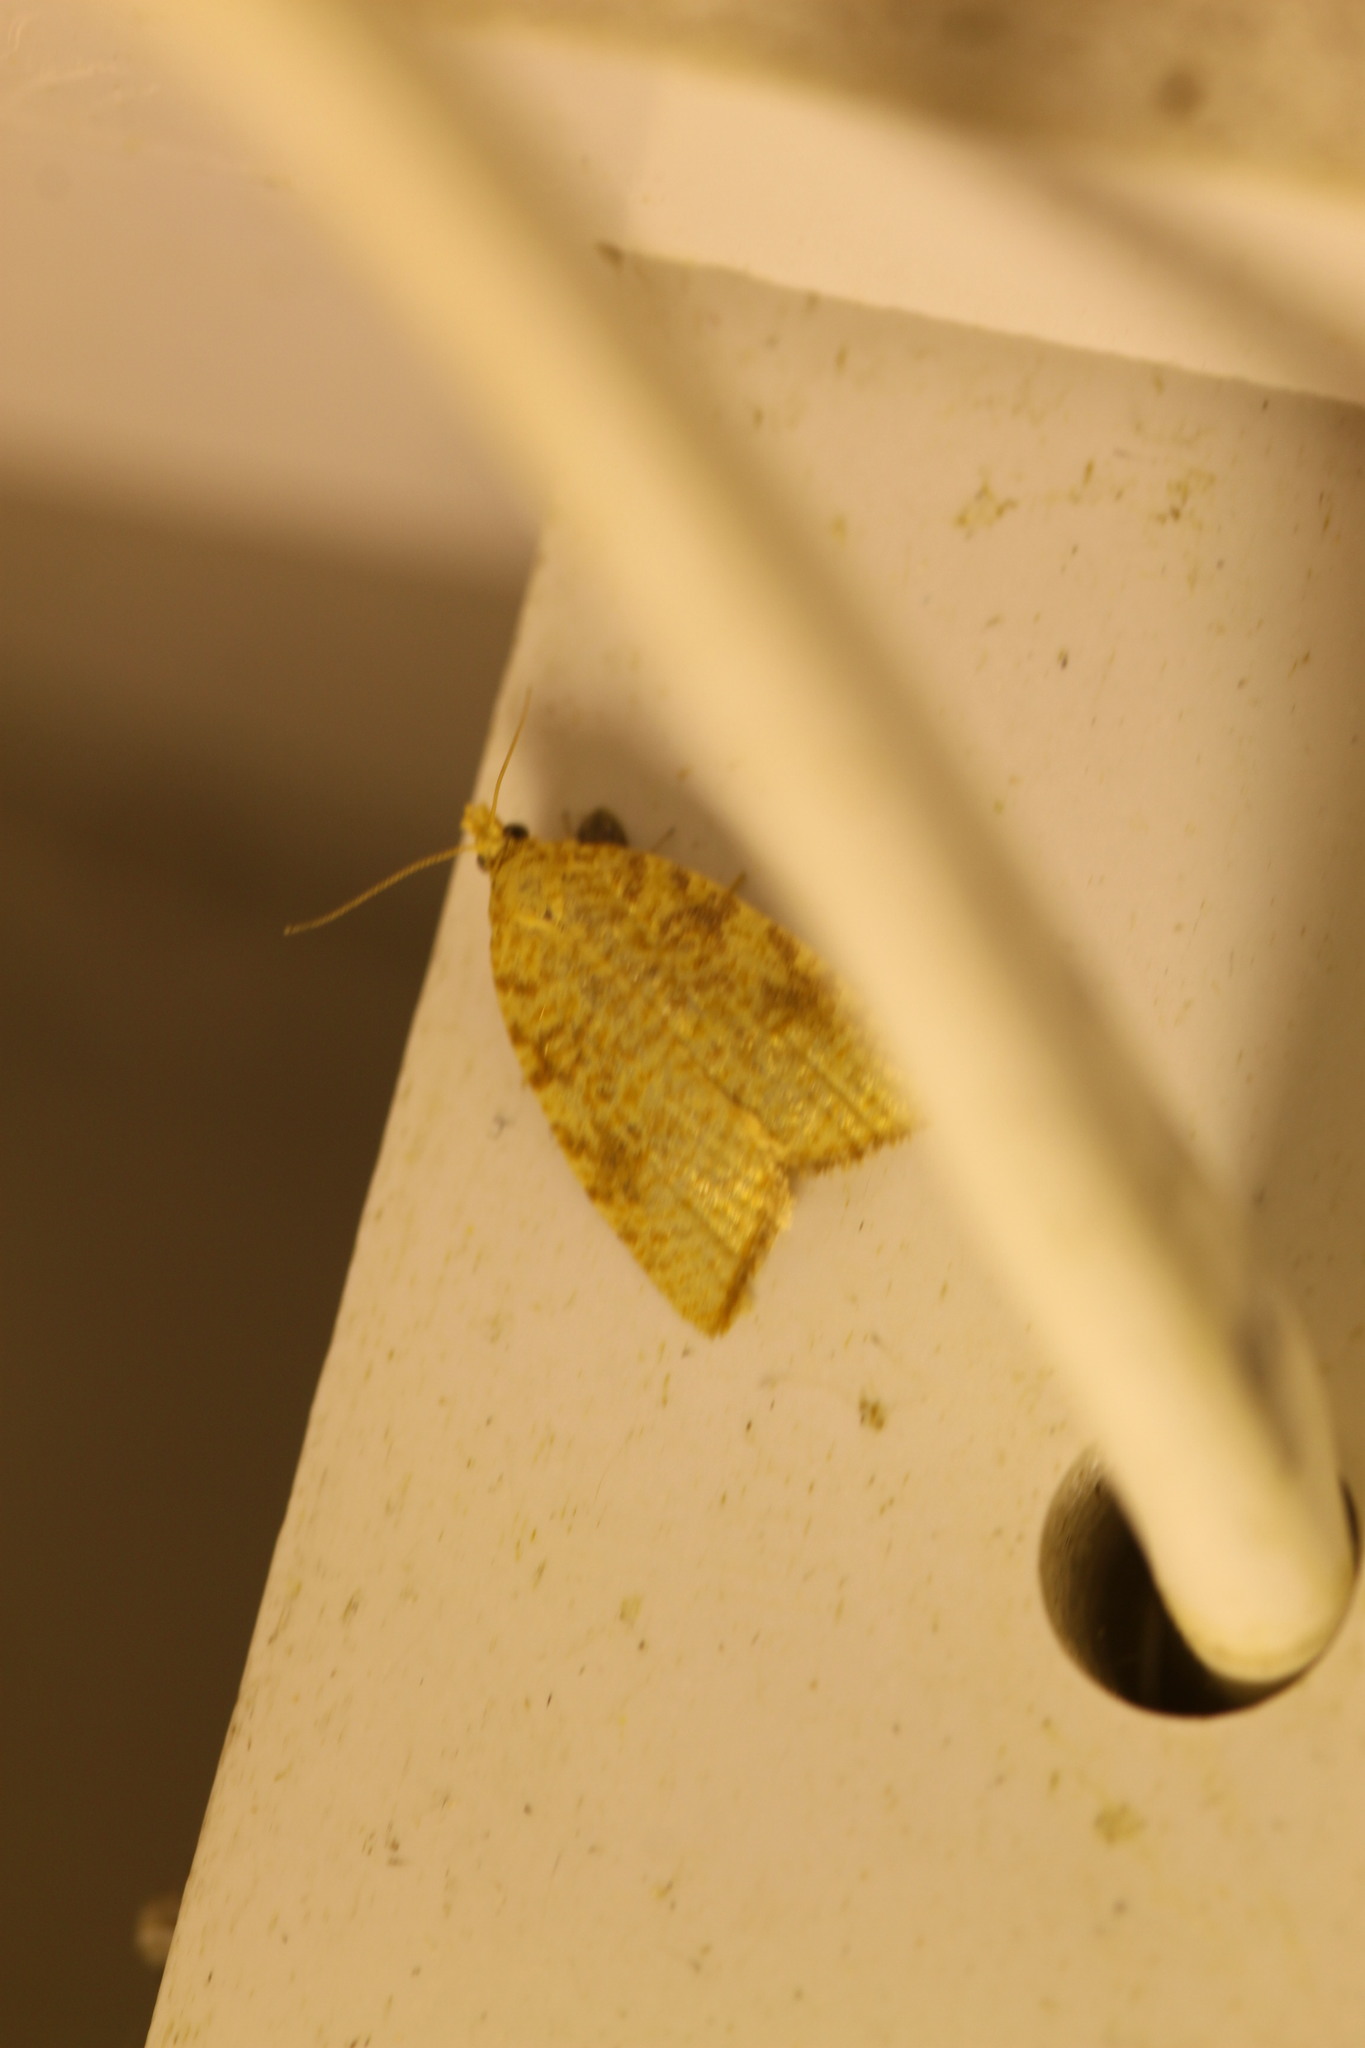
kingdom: Animalia
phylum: Arthropoda
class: Insecta
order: Lepidoptera
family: Tortricidae
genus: Aleimma
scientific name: Aleimma loeflingiana
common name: Yellow oak button
